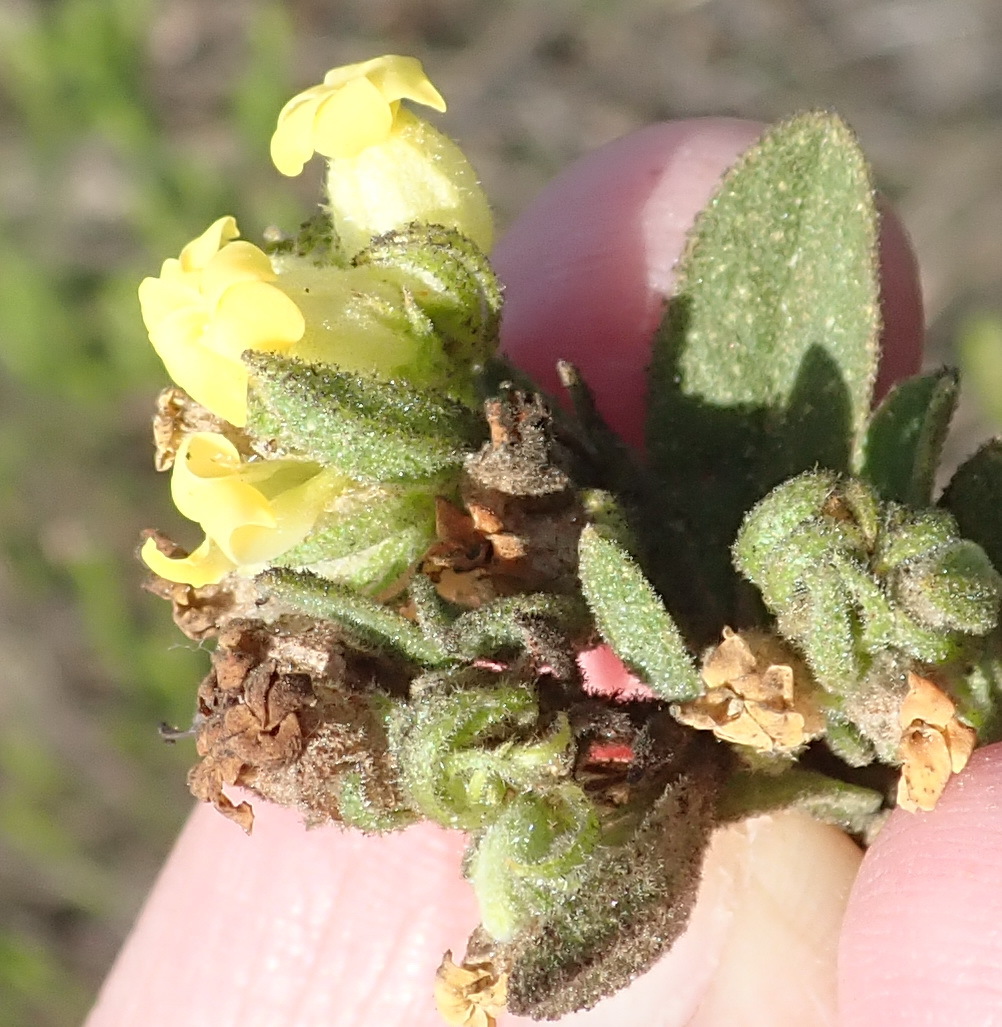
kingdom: Plantae
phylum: Tracheophyta
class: Magnoliopsida
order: Malvales
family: Malvaceae
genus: Hermannia
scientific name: Hermannia salviifolia
